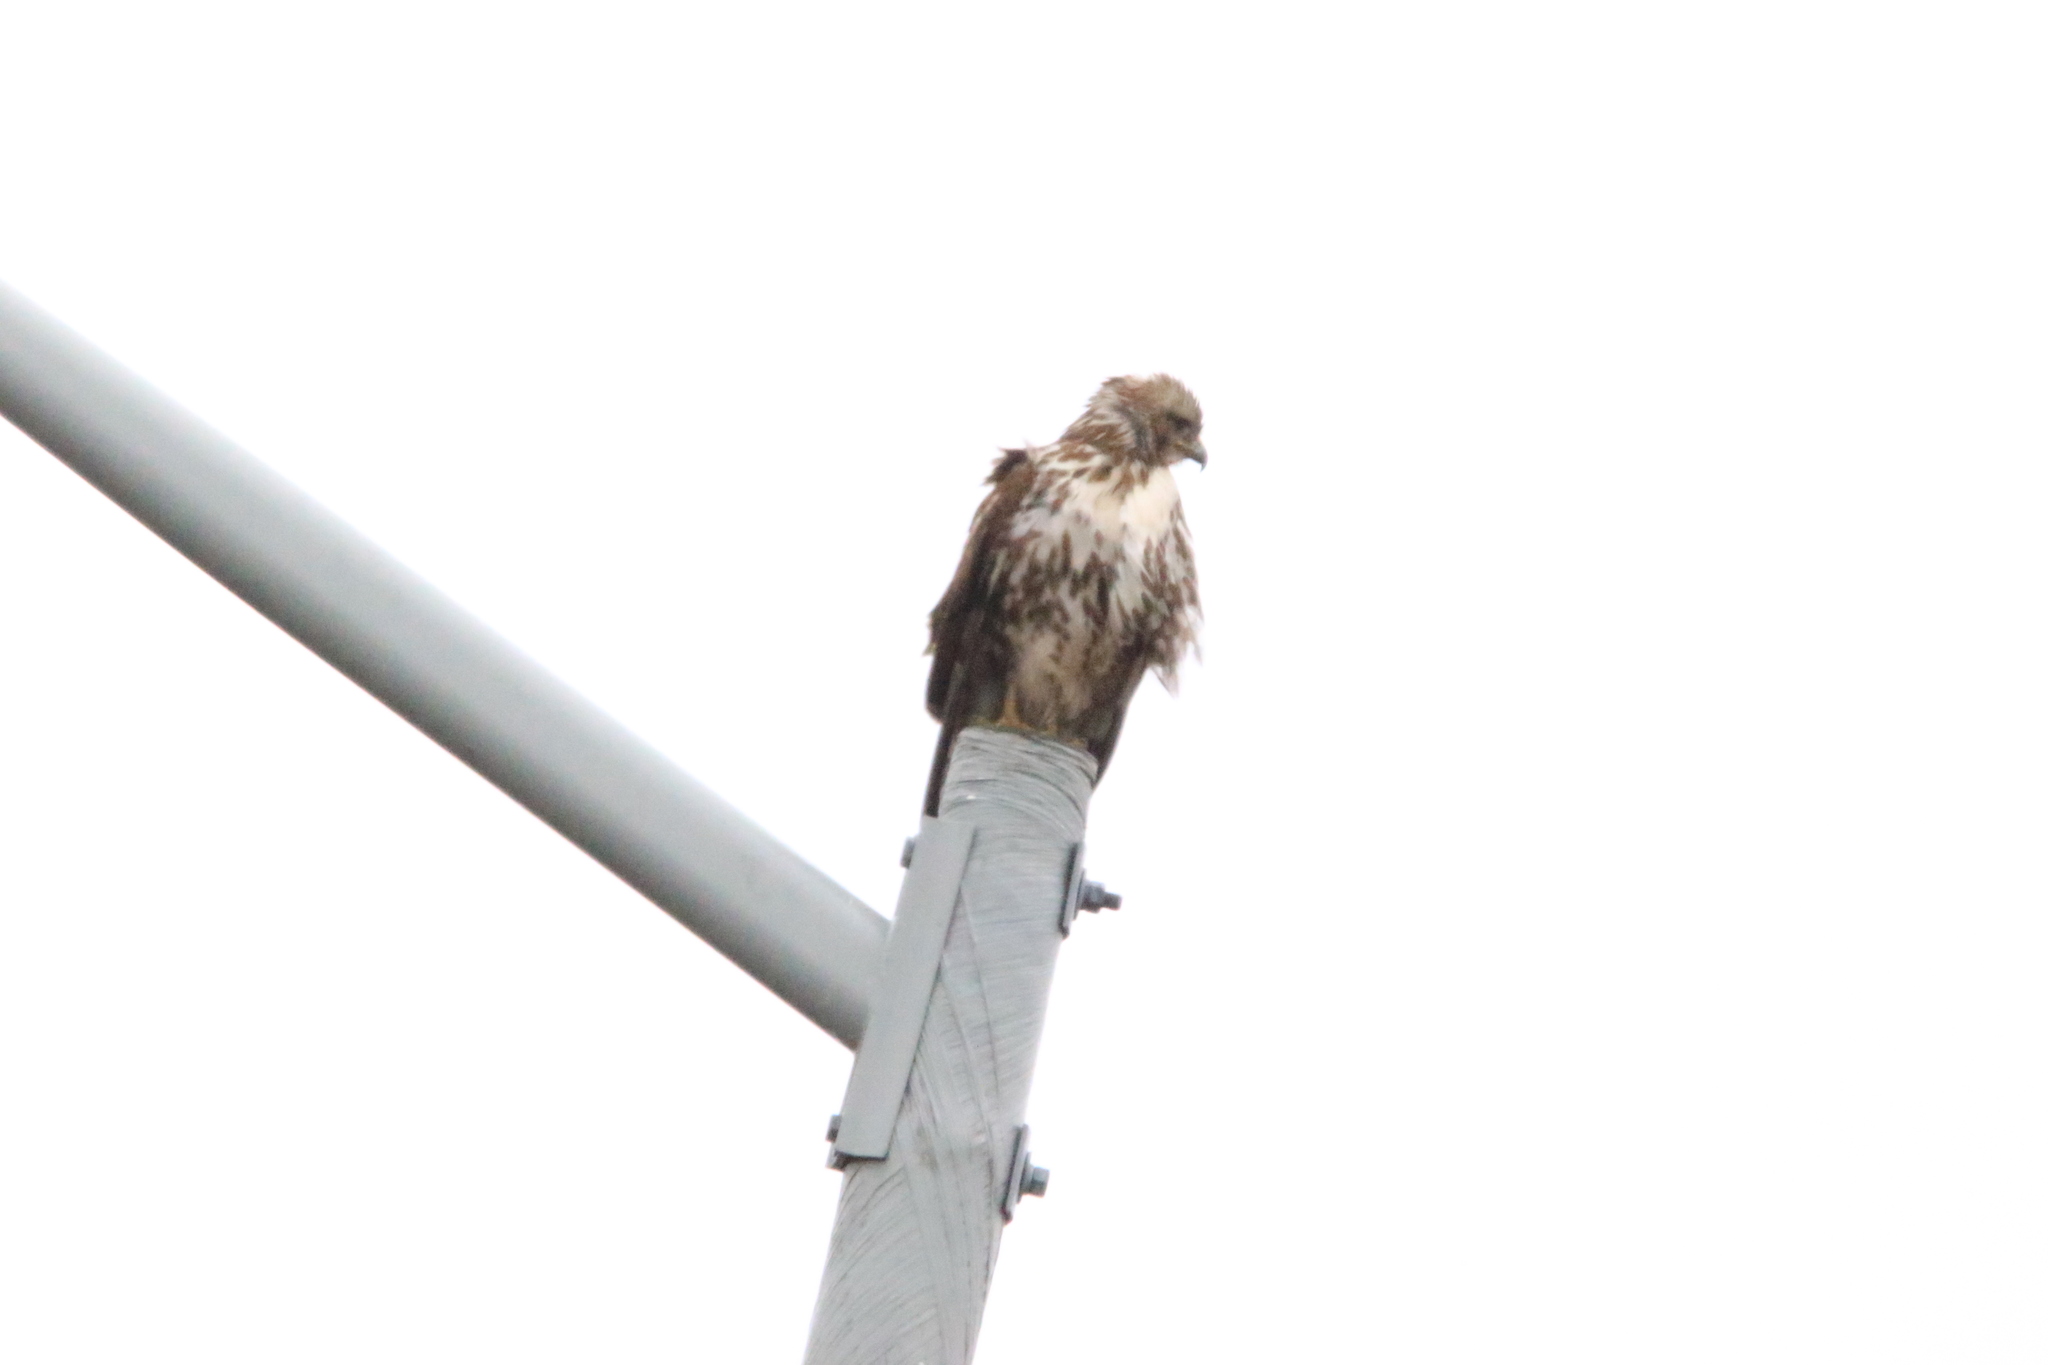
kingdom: Animalia
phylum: Chordata
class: Aves
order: Accipitriformes
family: Accipitridae
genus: Buteo
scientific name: Buteo jamaicensis
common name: Red-tailed hawk
